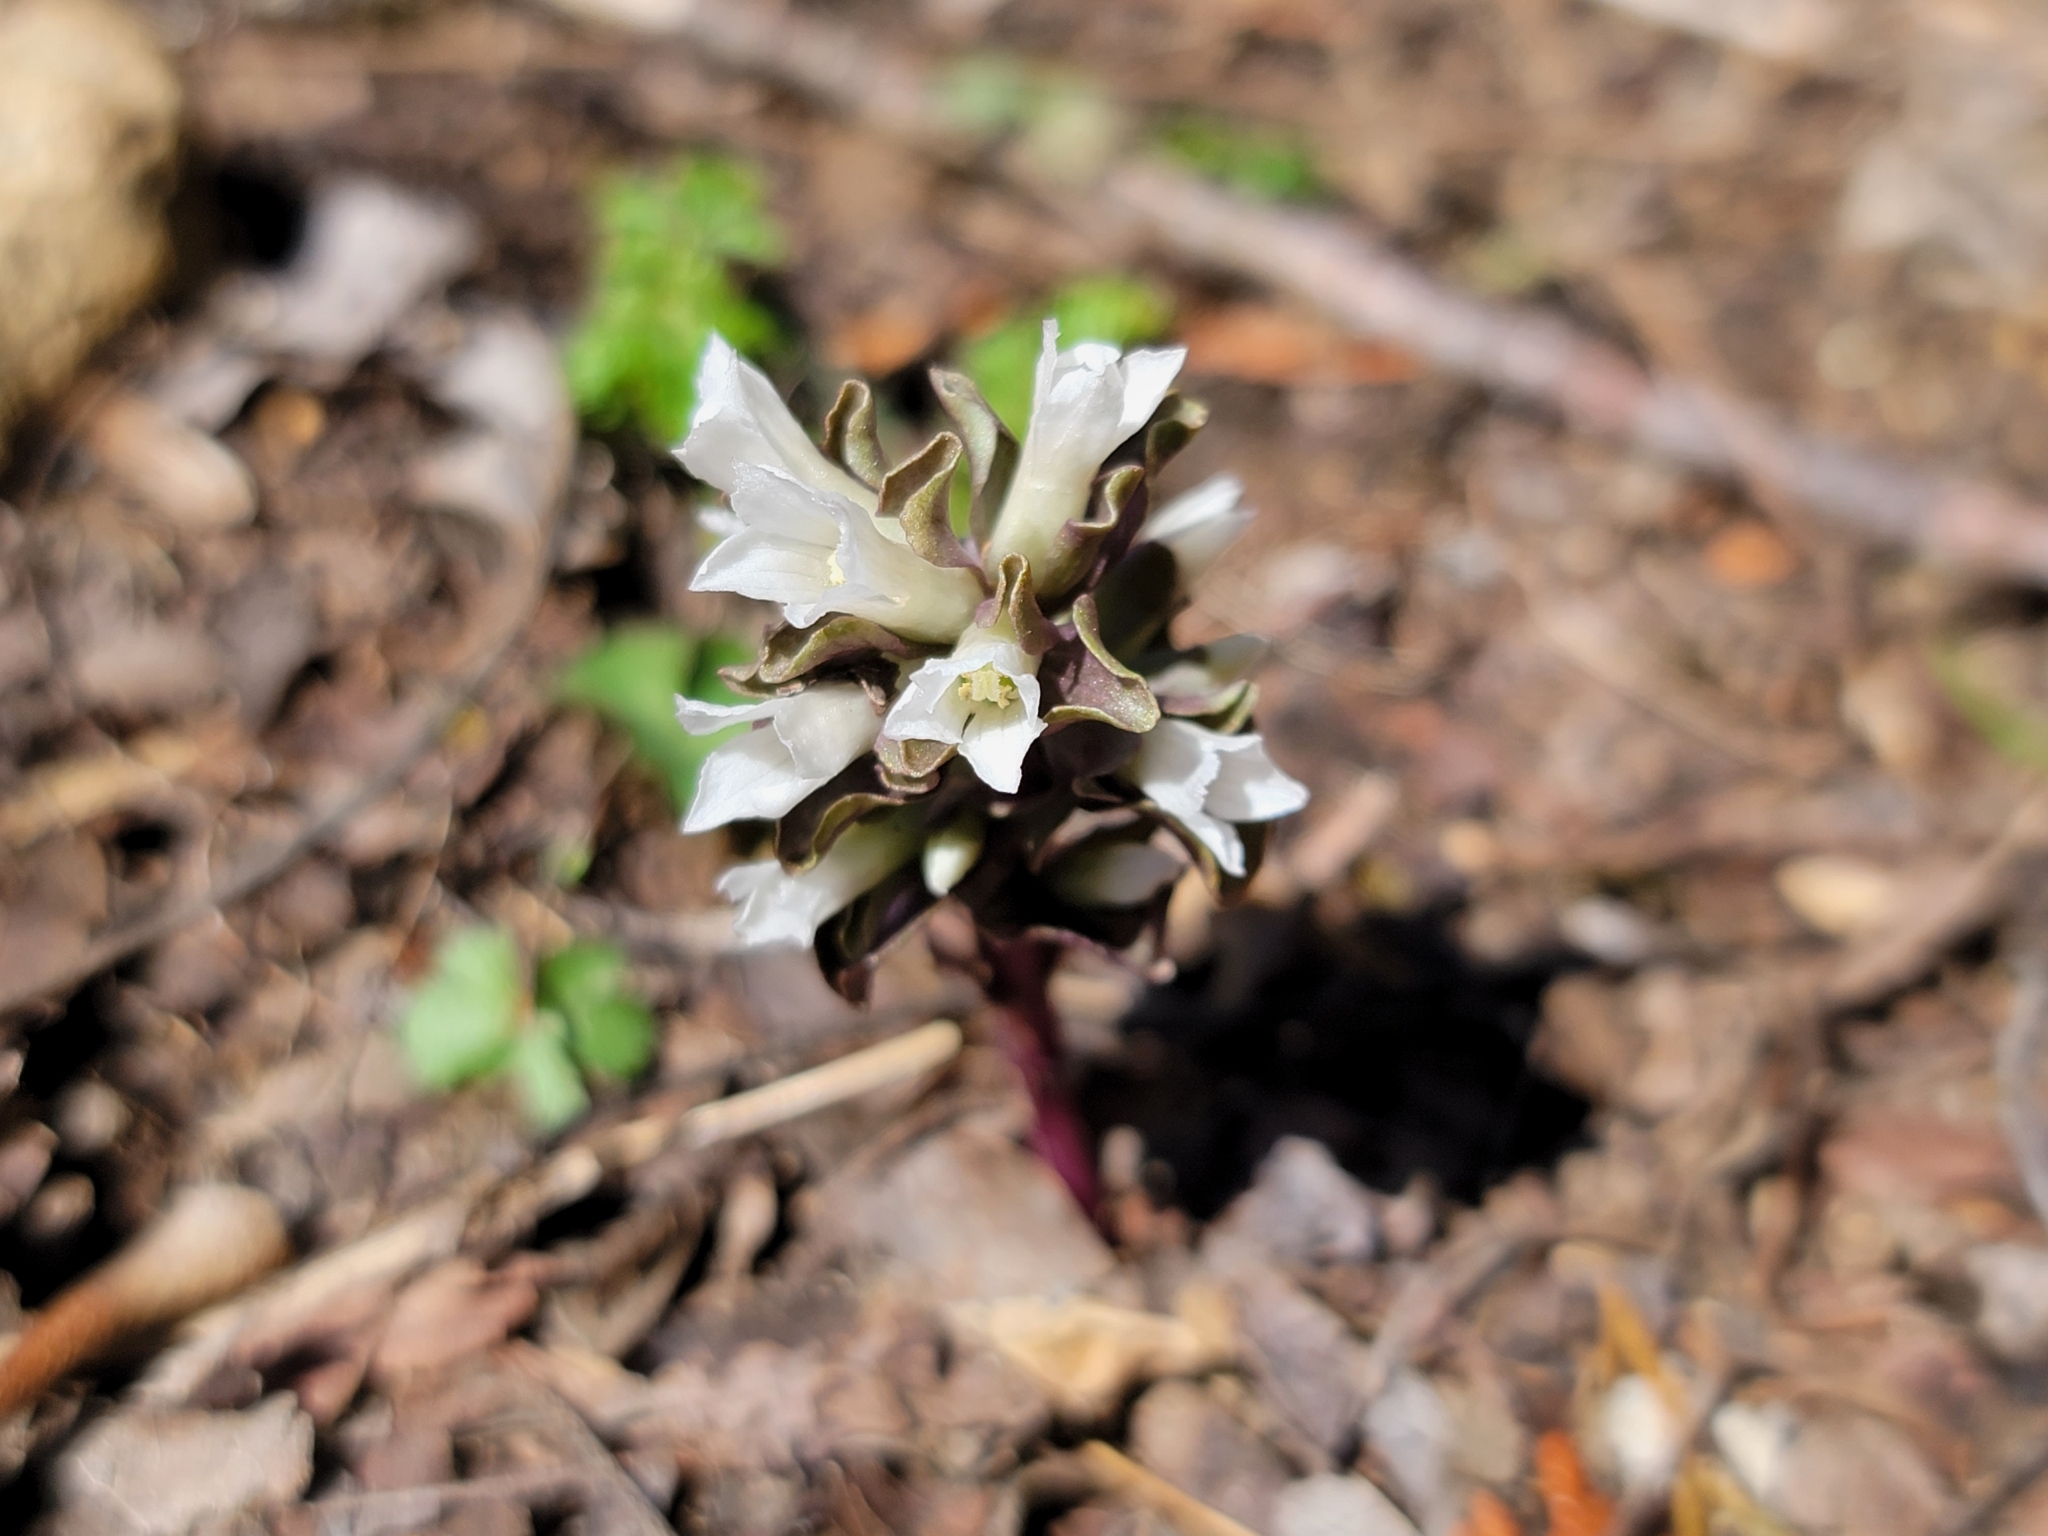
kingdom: Plantae
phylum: Tracheophyta
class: Magnoliopsida
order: Gentianales
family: Gentianaceae
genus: Obolaria
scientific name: Obolaria virginica
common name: Pennywort
